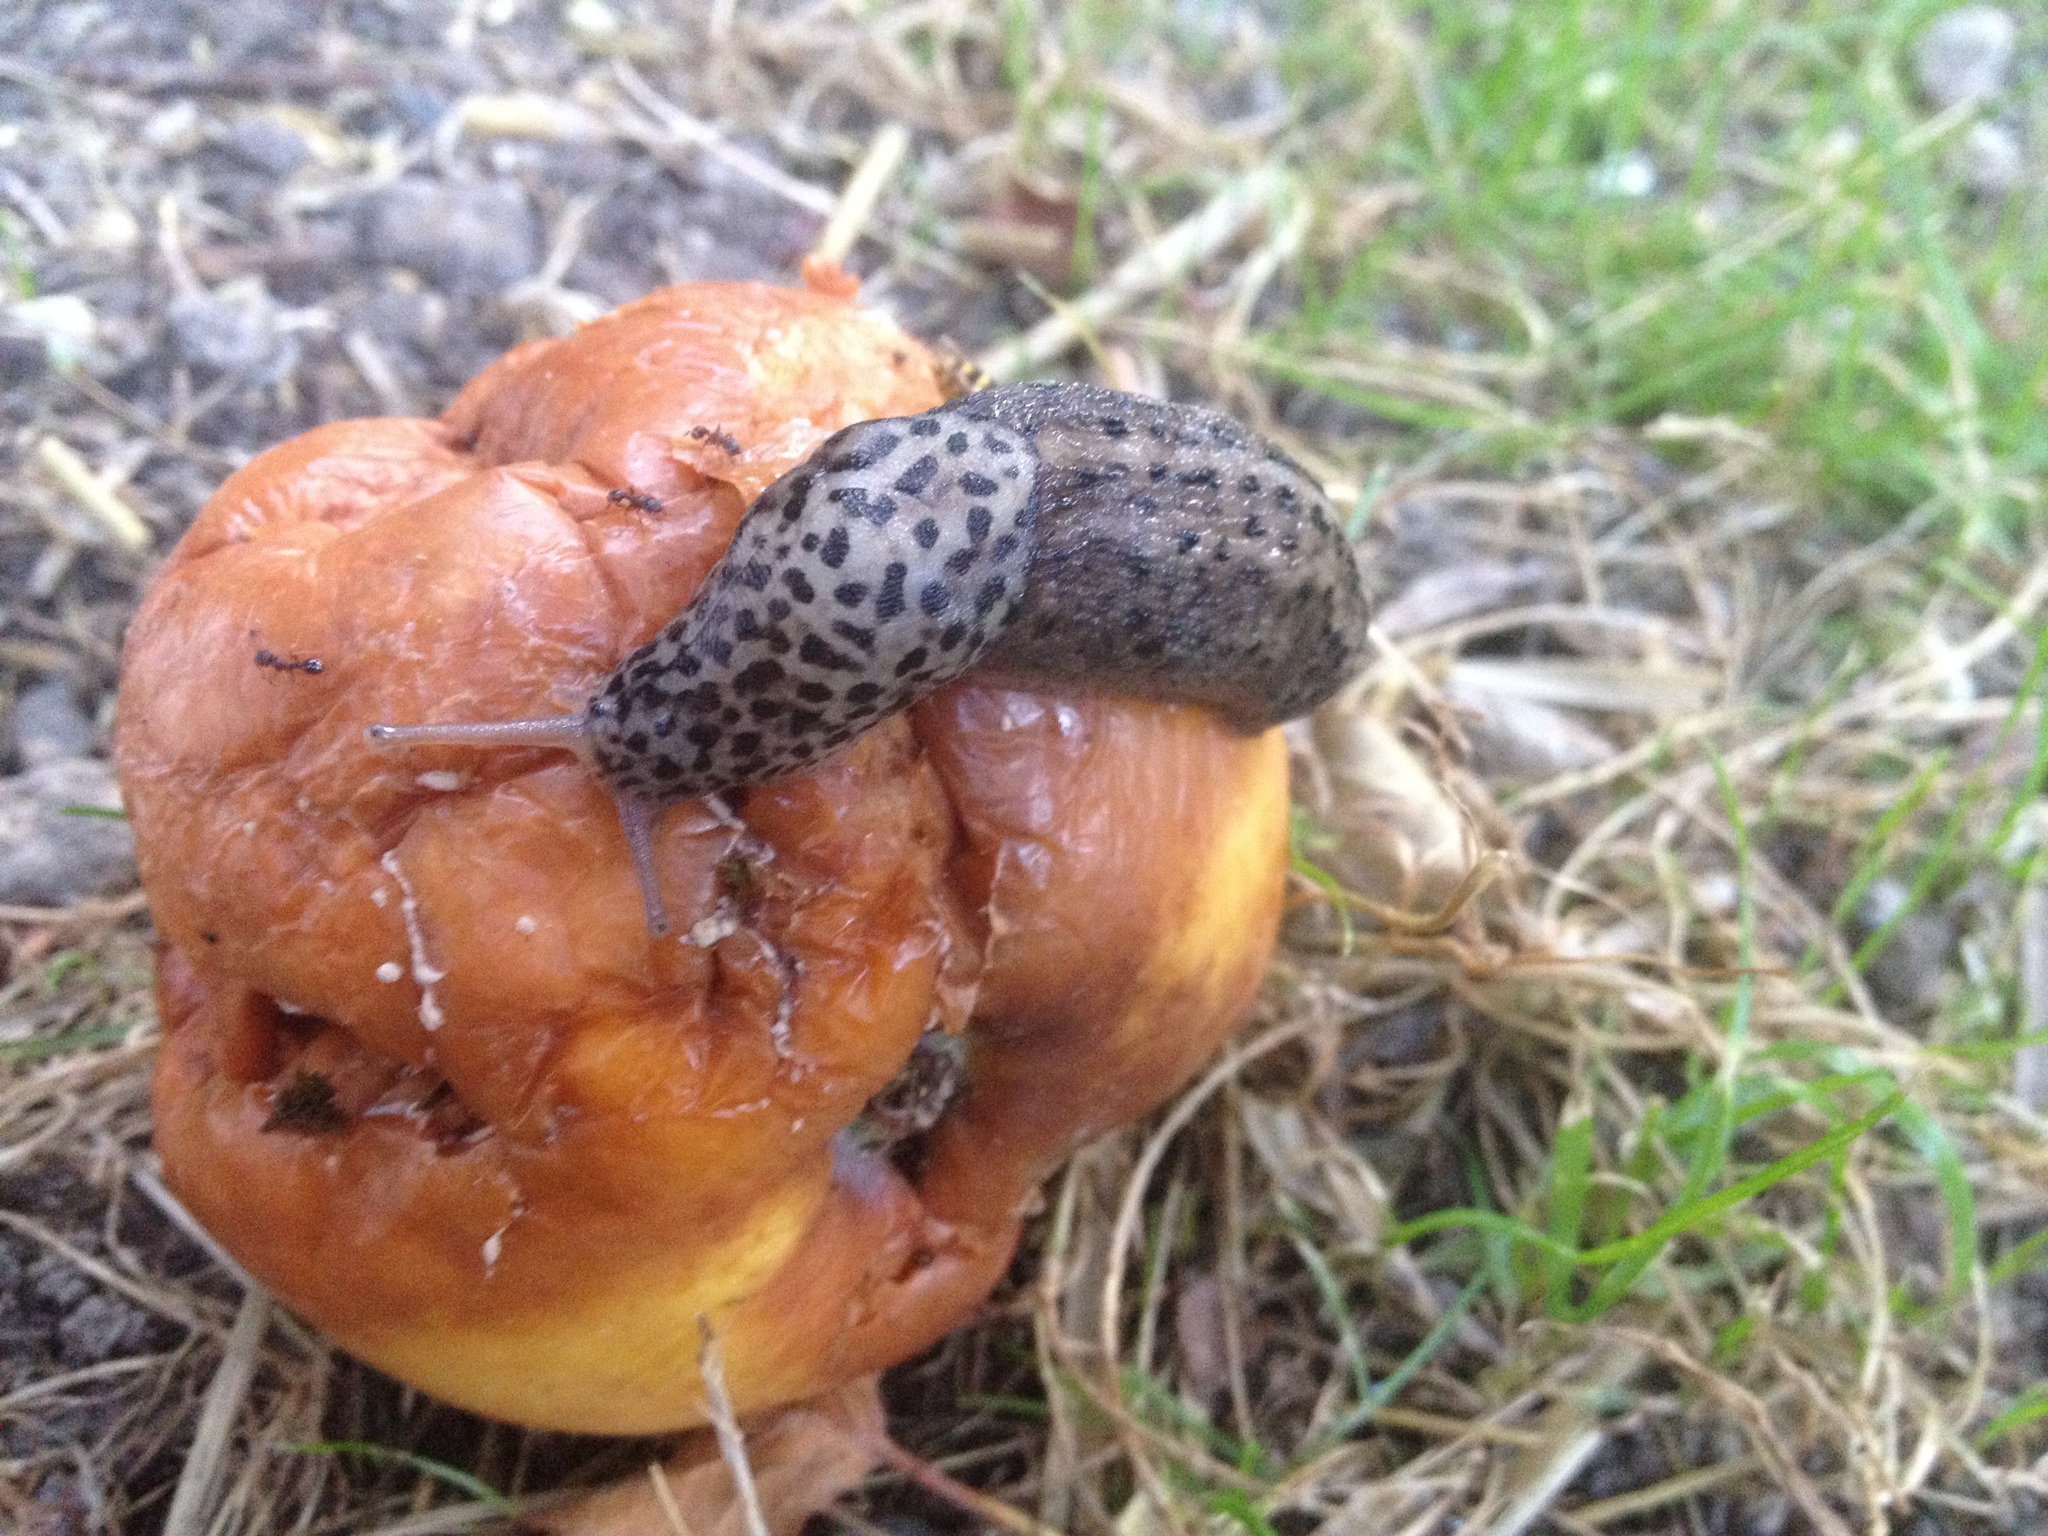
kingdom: Animalia
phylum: Mollusca
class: Gastropoda
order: Stylommatophora
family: Limacidae
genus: Limax
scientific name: Limax maximus
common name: Great grey slug
